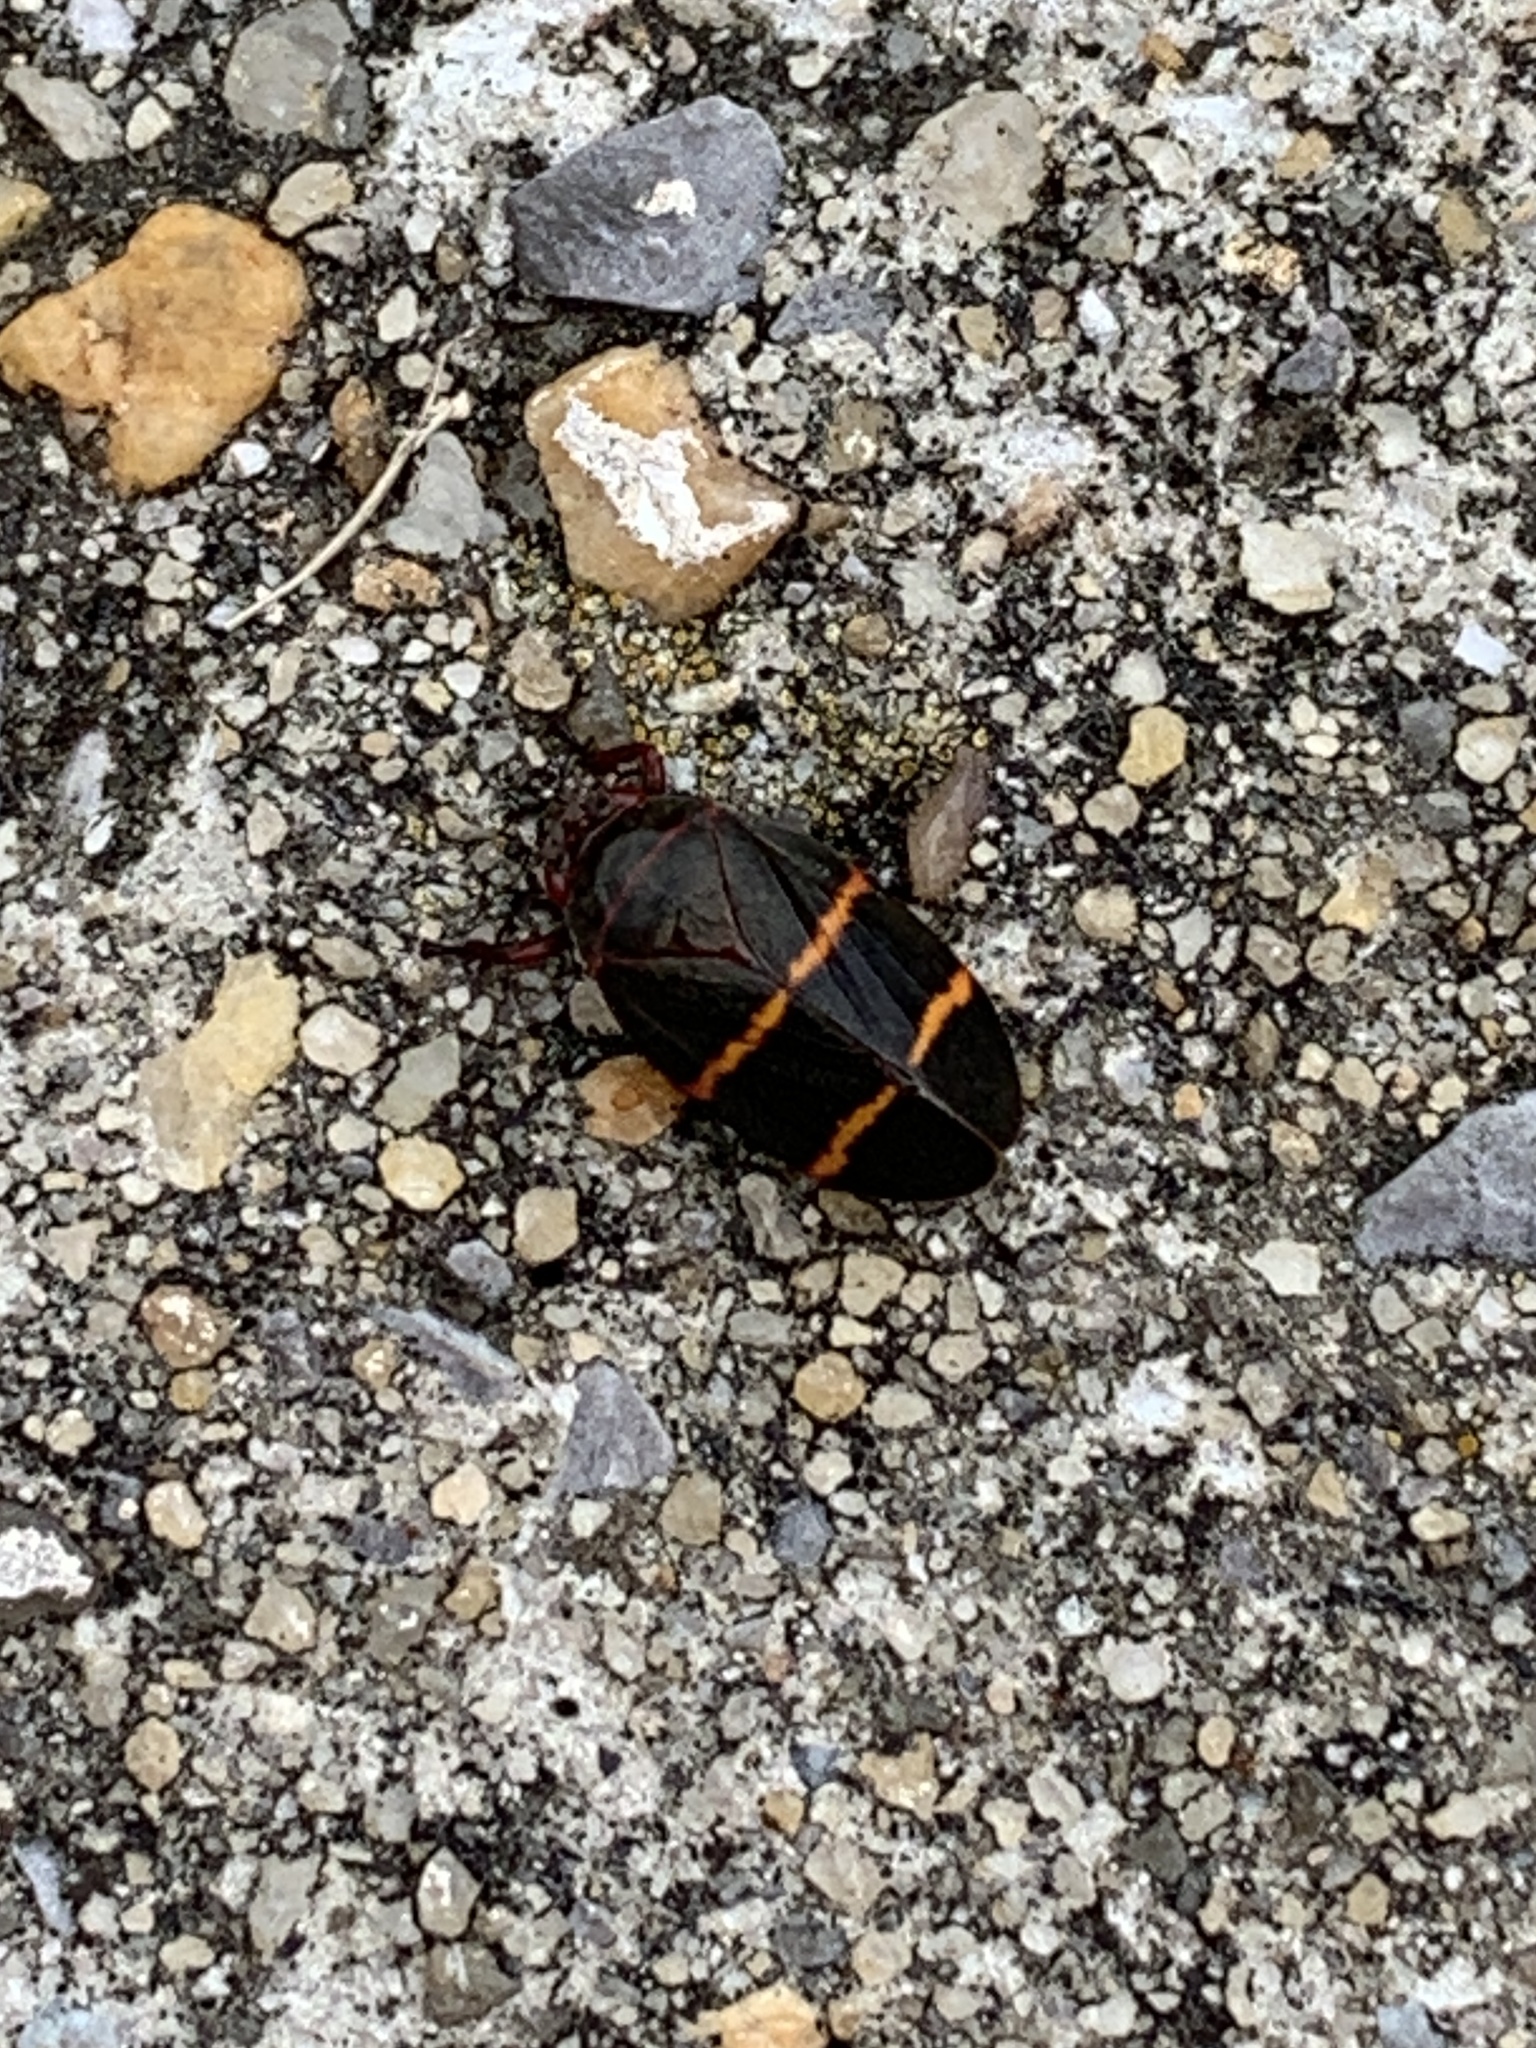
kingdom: Animalia
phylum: Arthropoda
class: Insecta
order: Hemiptera
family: Cercopidae
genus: Prosapia
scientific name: Prosapia bicincta
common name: Twolined spittlebug
